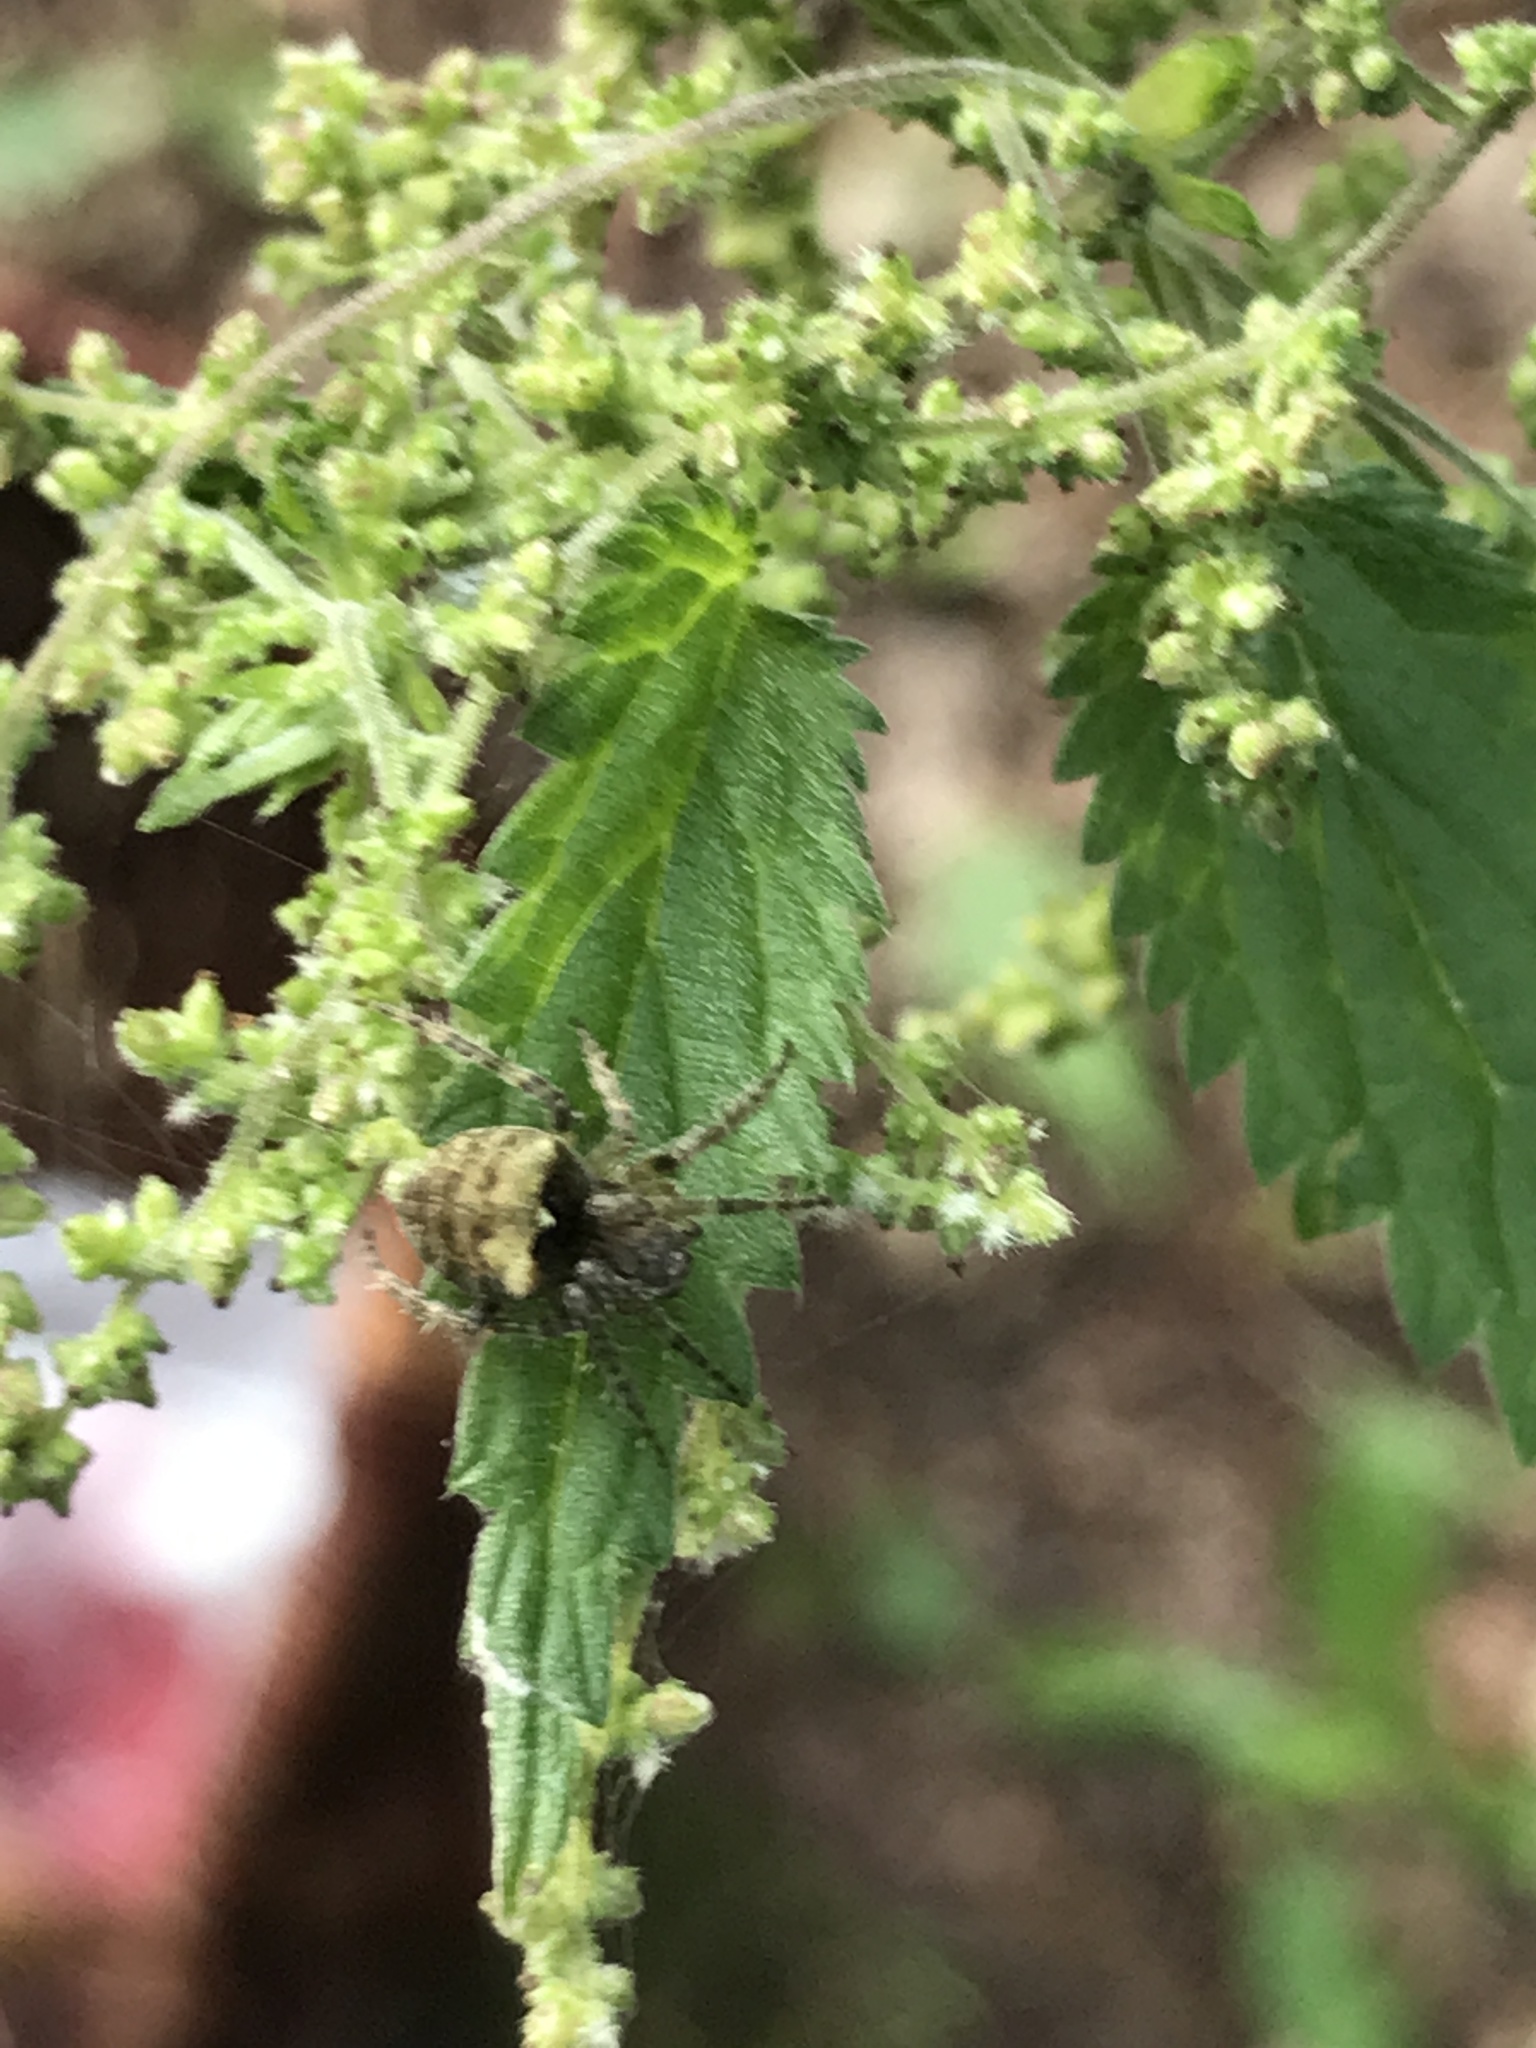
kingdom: Animalia
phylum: Arthropoda
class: Arachnida
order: Araneae
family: Araneidae
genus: Araneus
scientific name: Araneus angulatus
